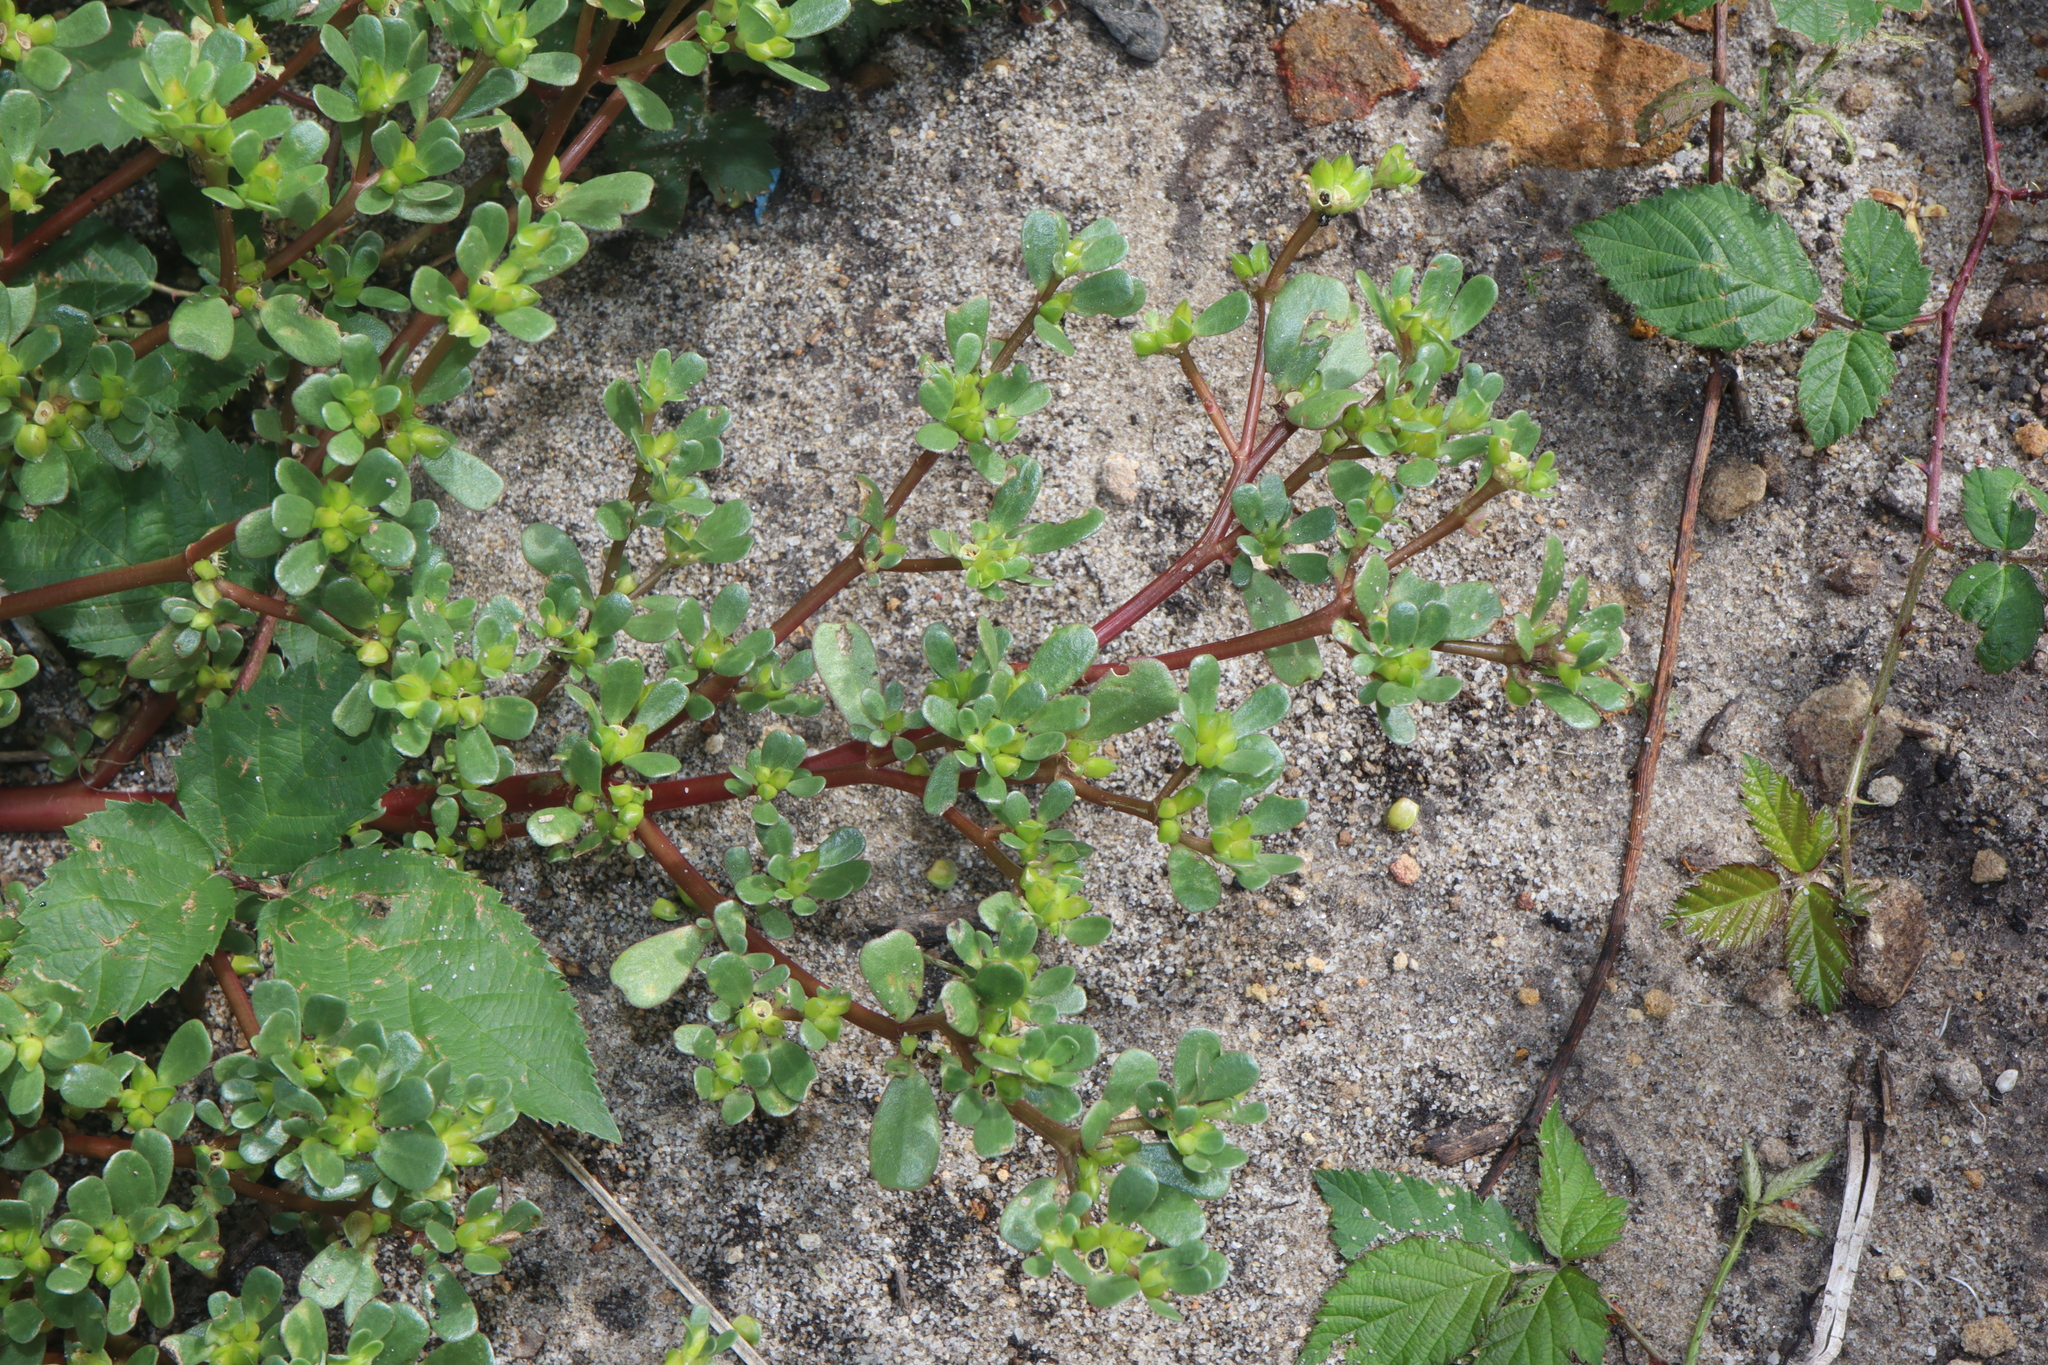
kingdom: Plantae
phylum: Tracheophyta
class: Magnoliopsida
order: Caryophyllales
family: Portulacaceae
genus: Portulaca
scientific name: Portulaca oleracea
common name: Common purslane
